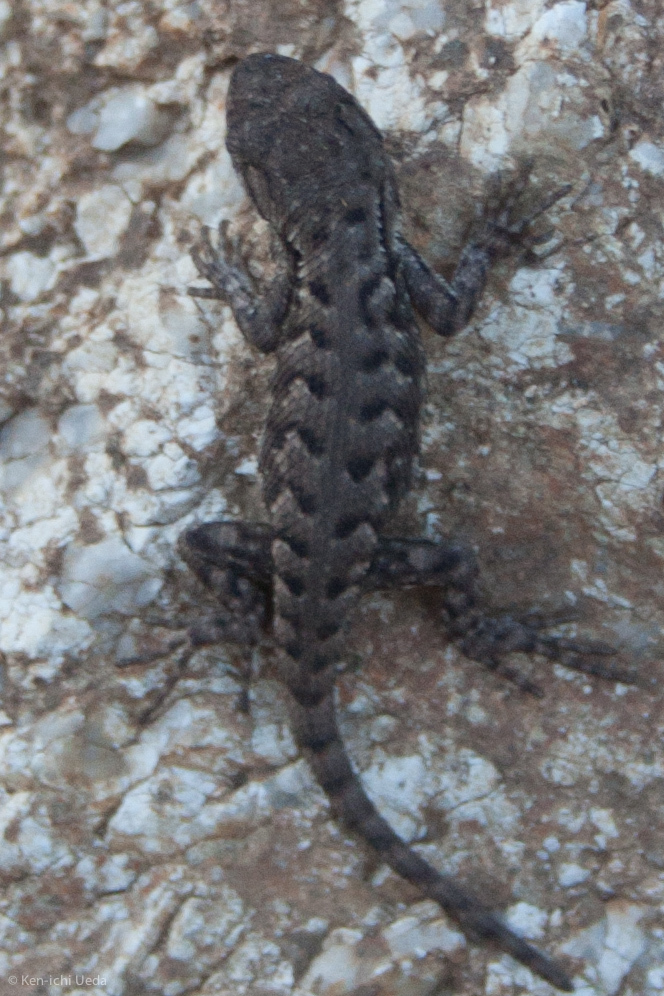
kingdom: Animalia
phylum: Chordata
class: Squamata
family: Phrynosomatidae
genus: Sceloporus
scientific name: Sceloporus occidentalis
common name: Western fence lizard
